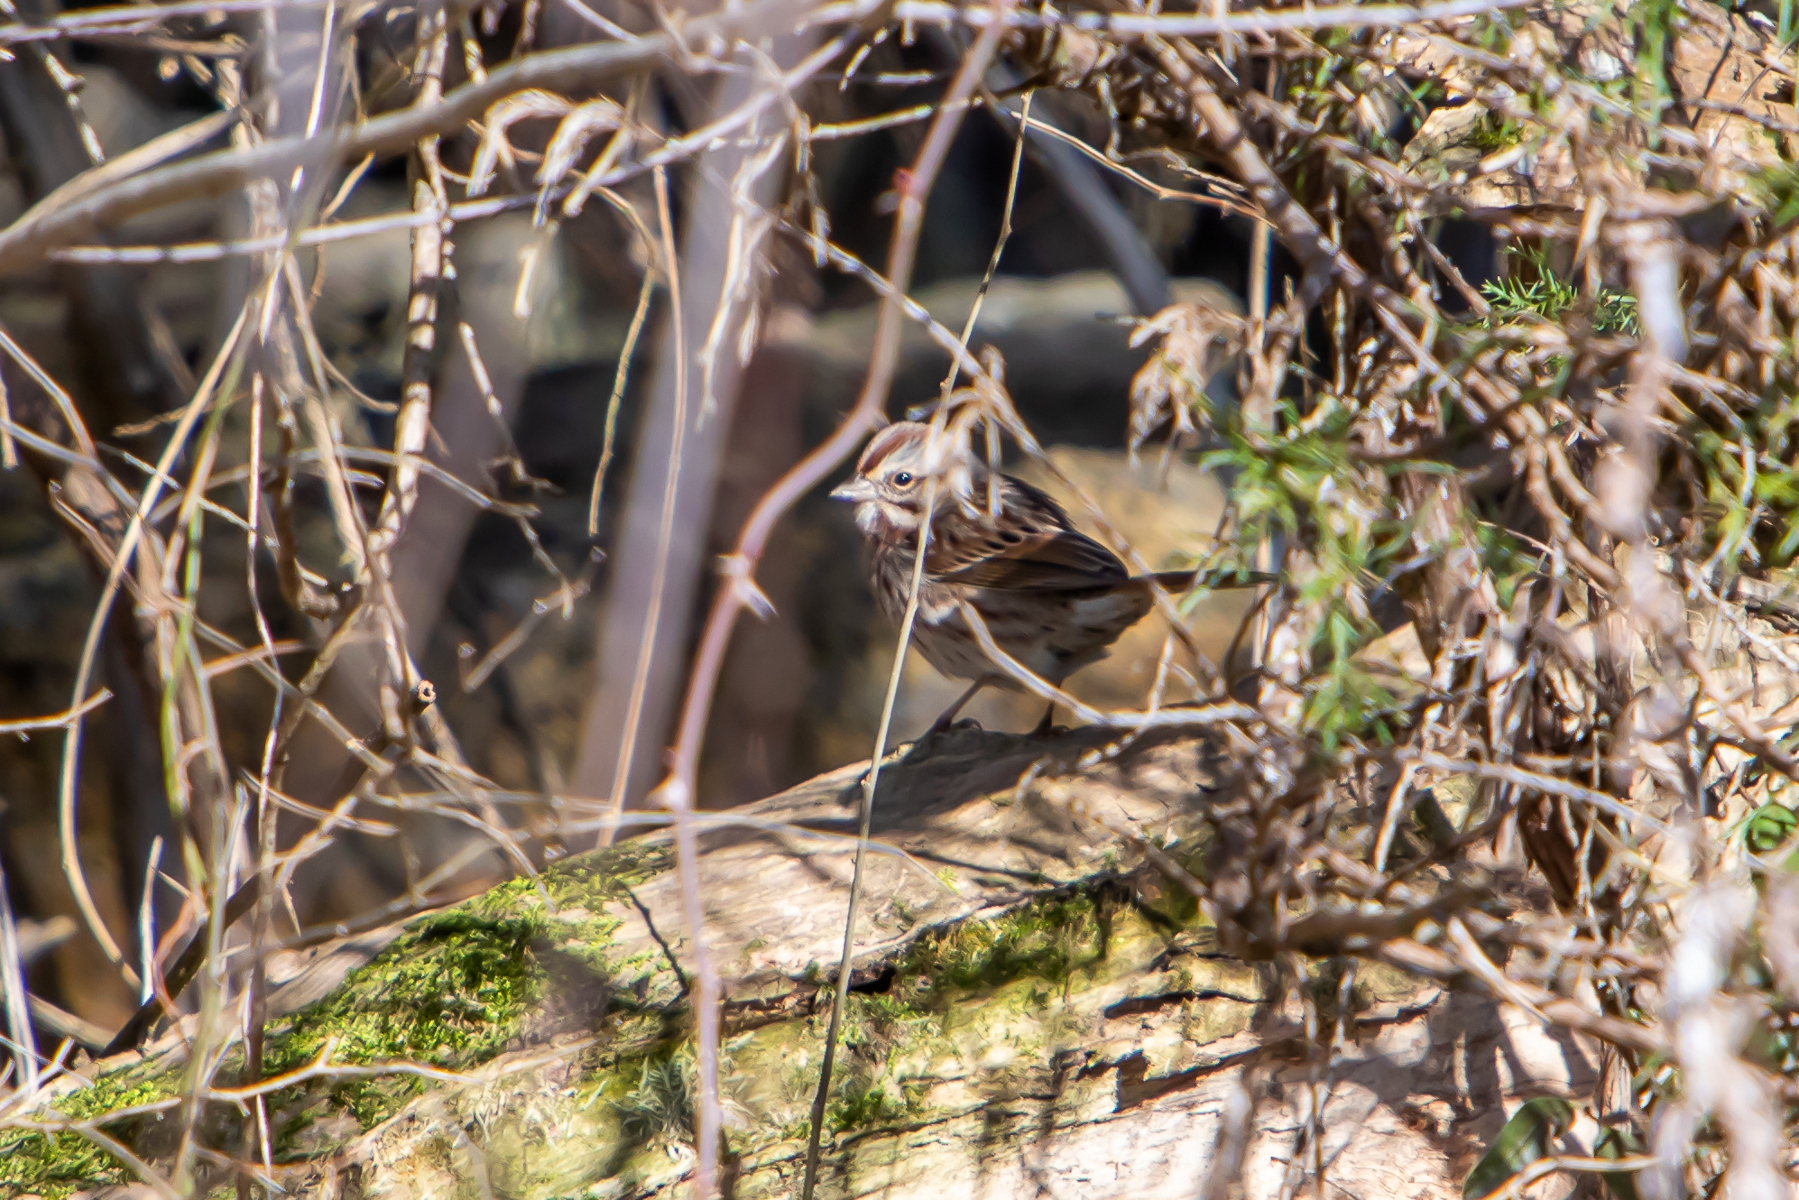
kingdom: Animalia
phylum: Chordata
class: Aves
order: Passeriformes
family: Passerellidae
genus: Melospiza
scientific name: Melospiza melodia
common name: Song sparrow
